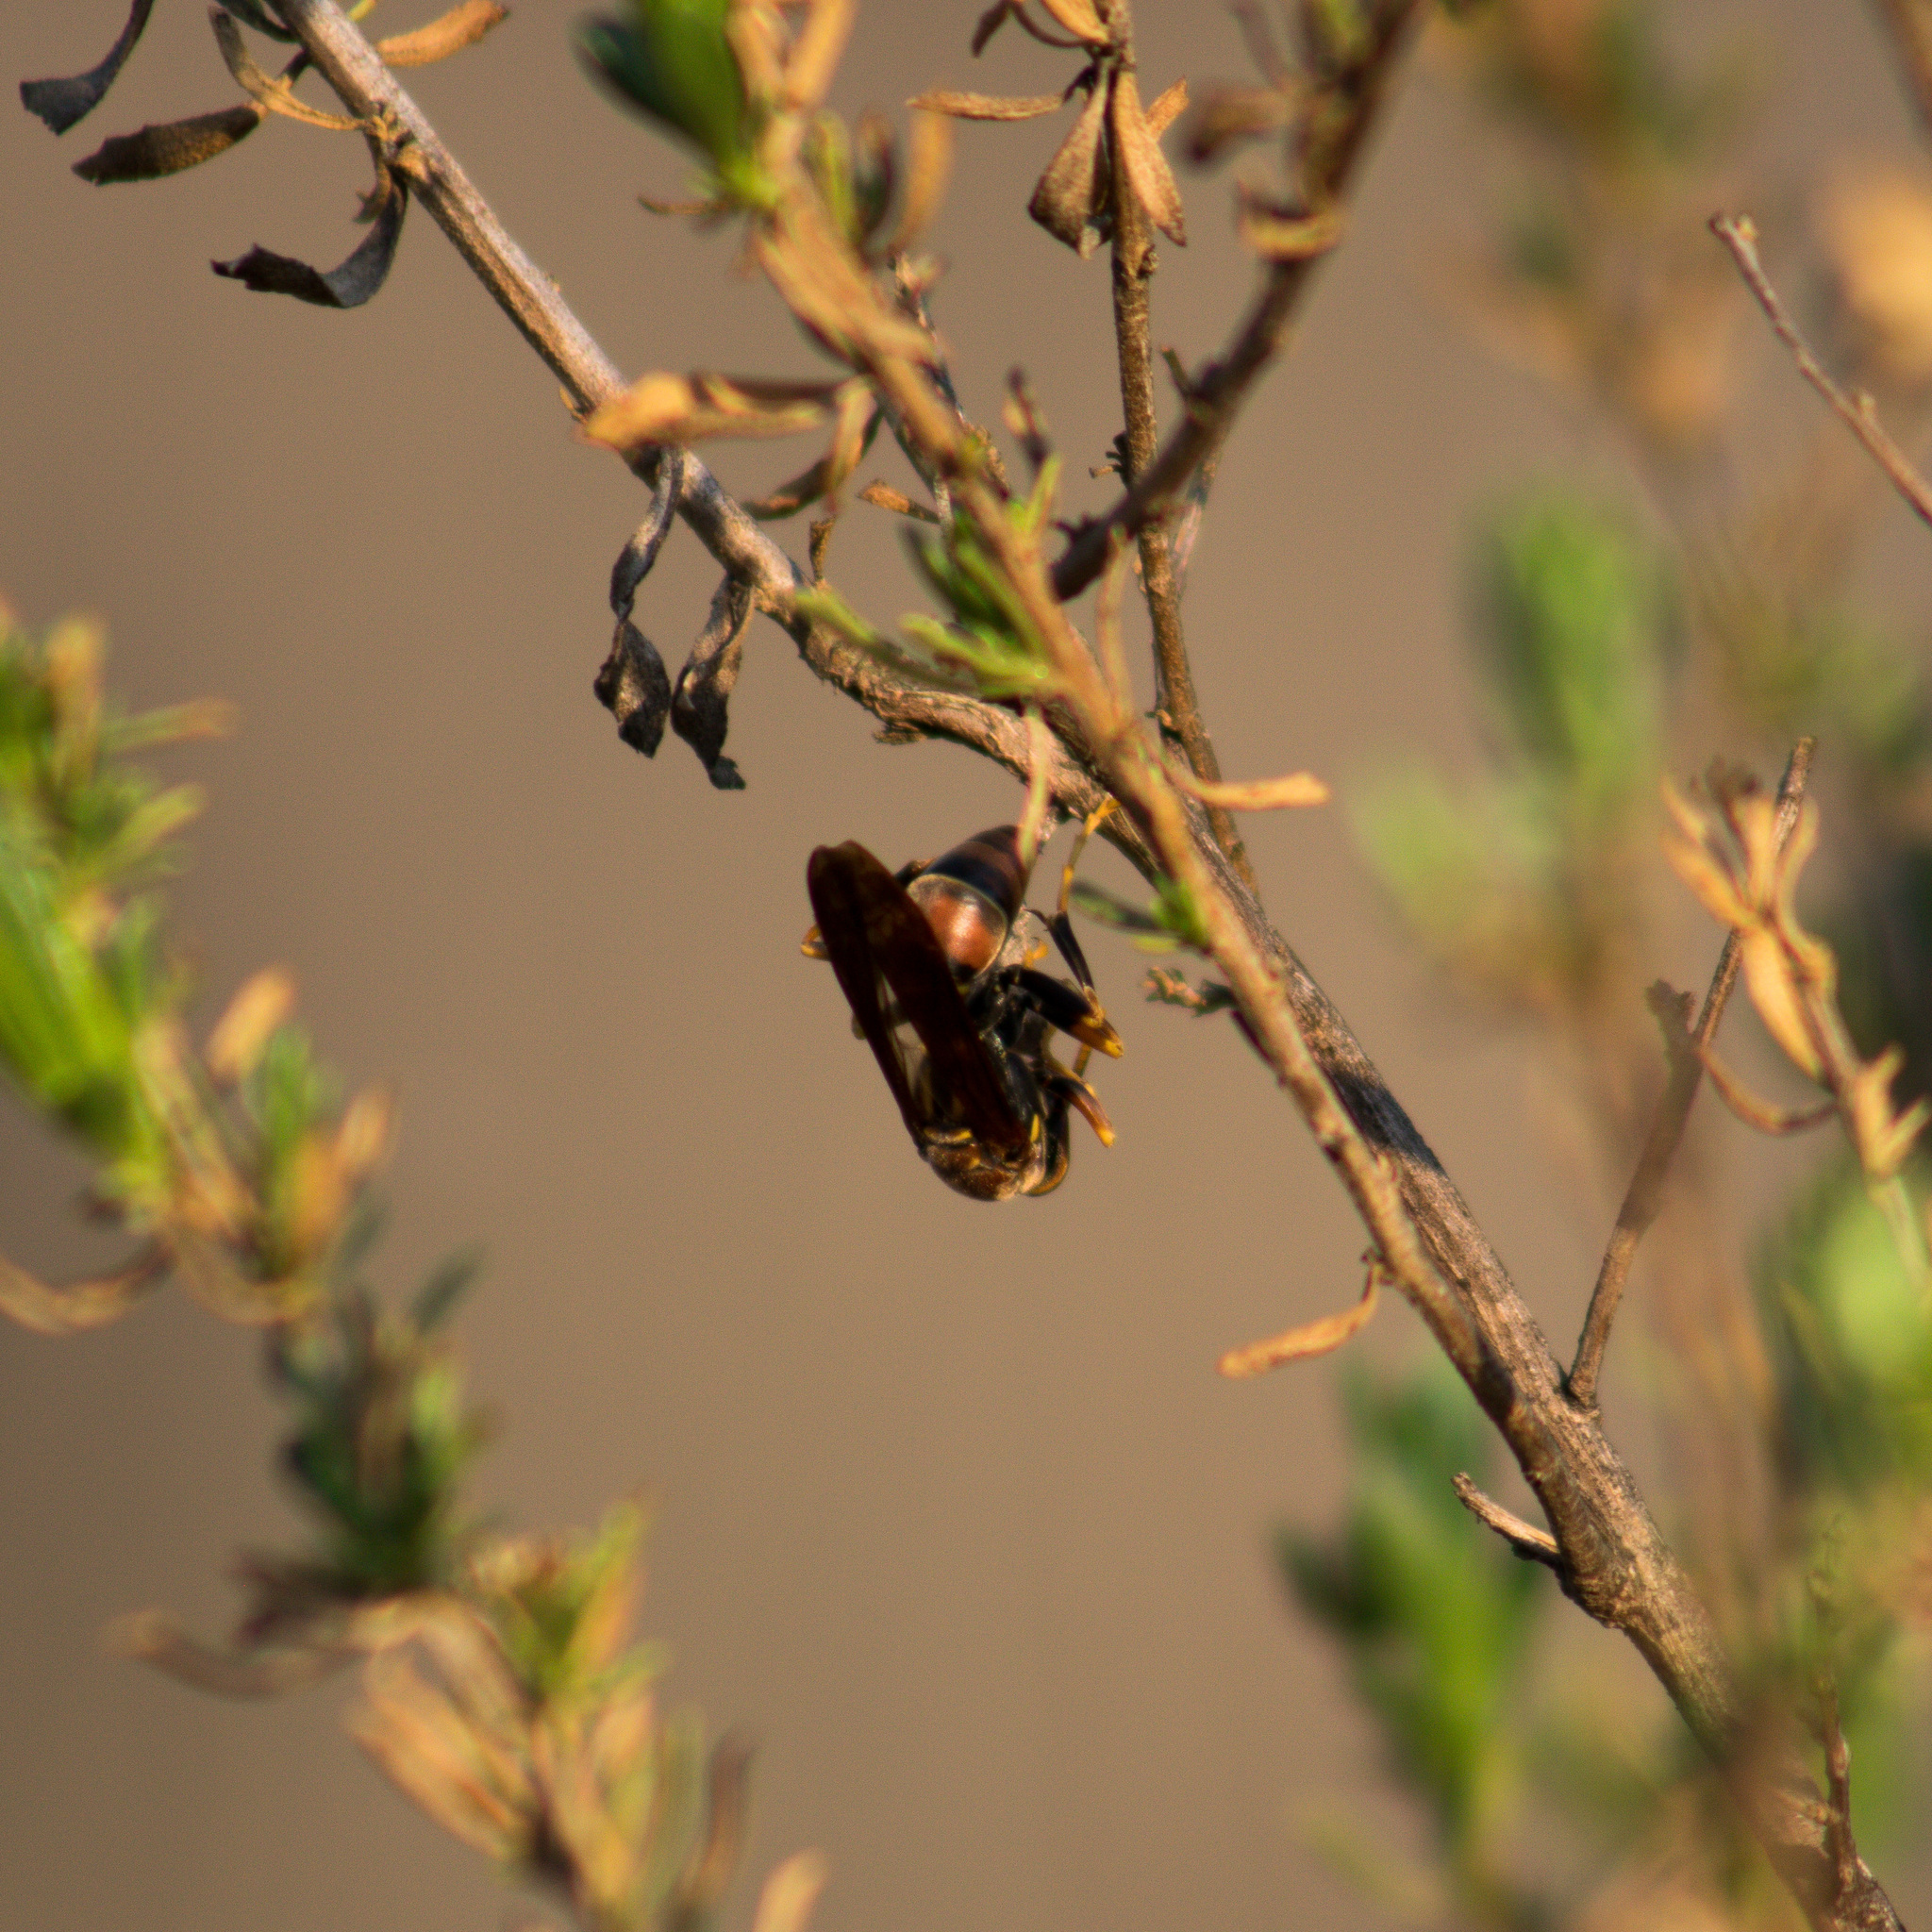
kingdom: Animalia
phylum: Arthropoda
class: Insecta
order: Hymenoptera
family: Eumenidae
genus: Polistes
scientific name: Polistes oculatus
